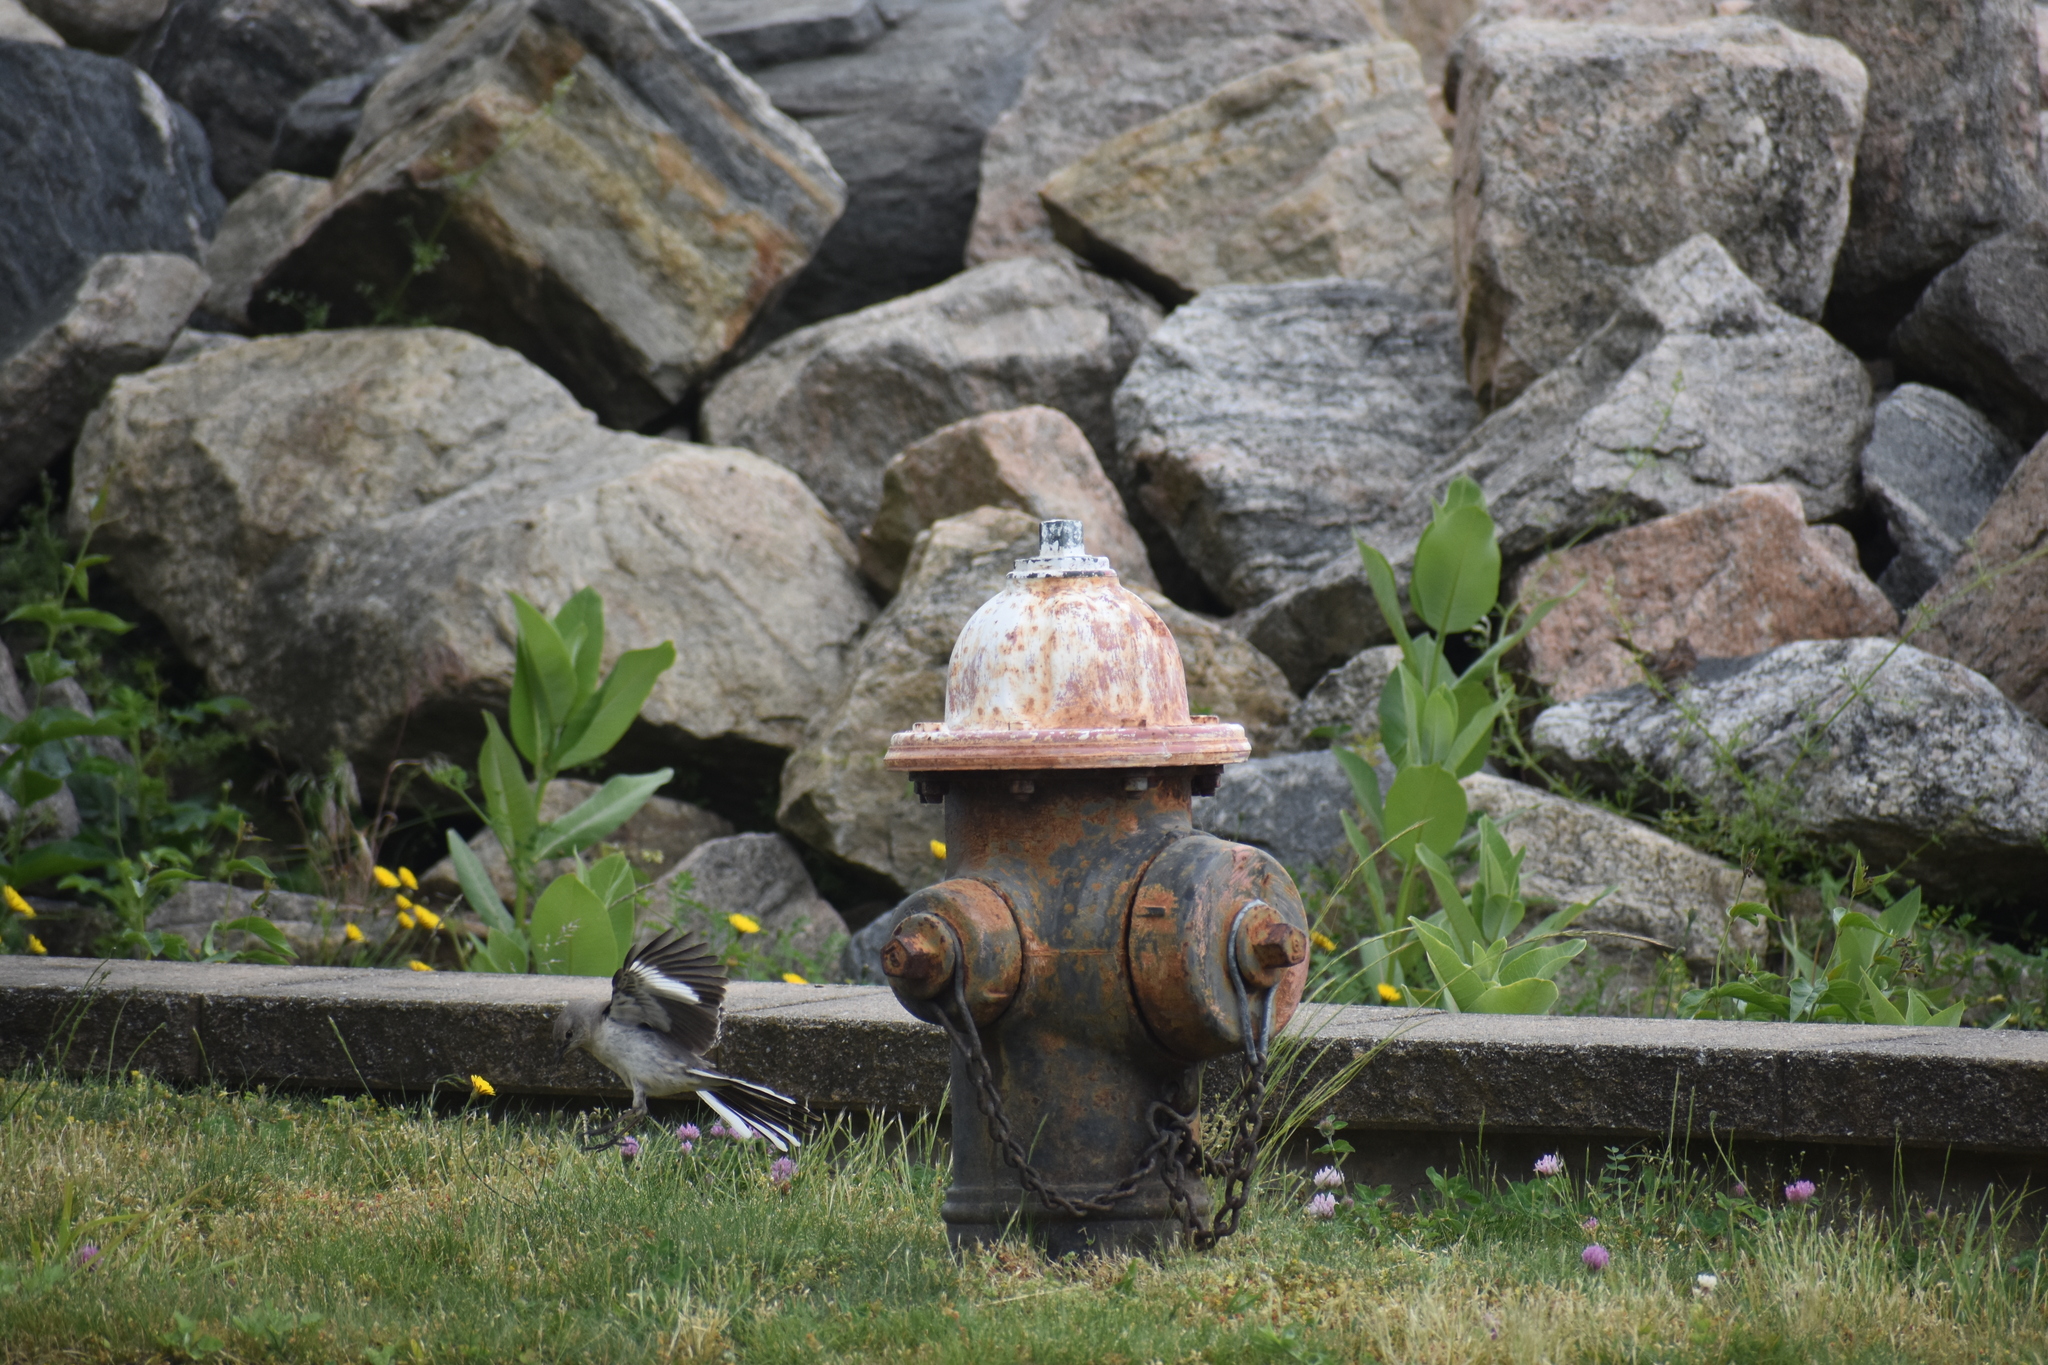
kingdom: Animalia
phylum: Chordata
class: Aves
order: Passeriformes
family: Mimidae
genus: Mimus
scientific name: Mimus polyglottos
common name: Northern mockingbird
